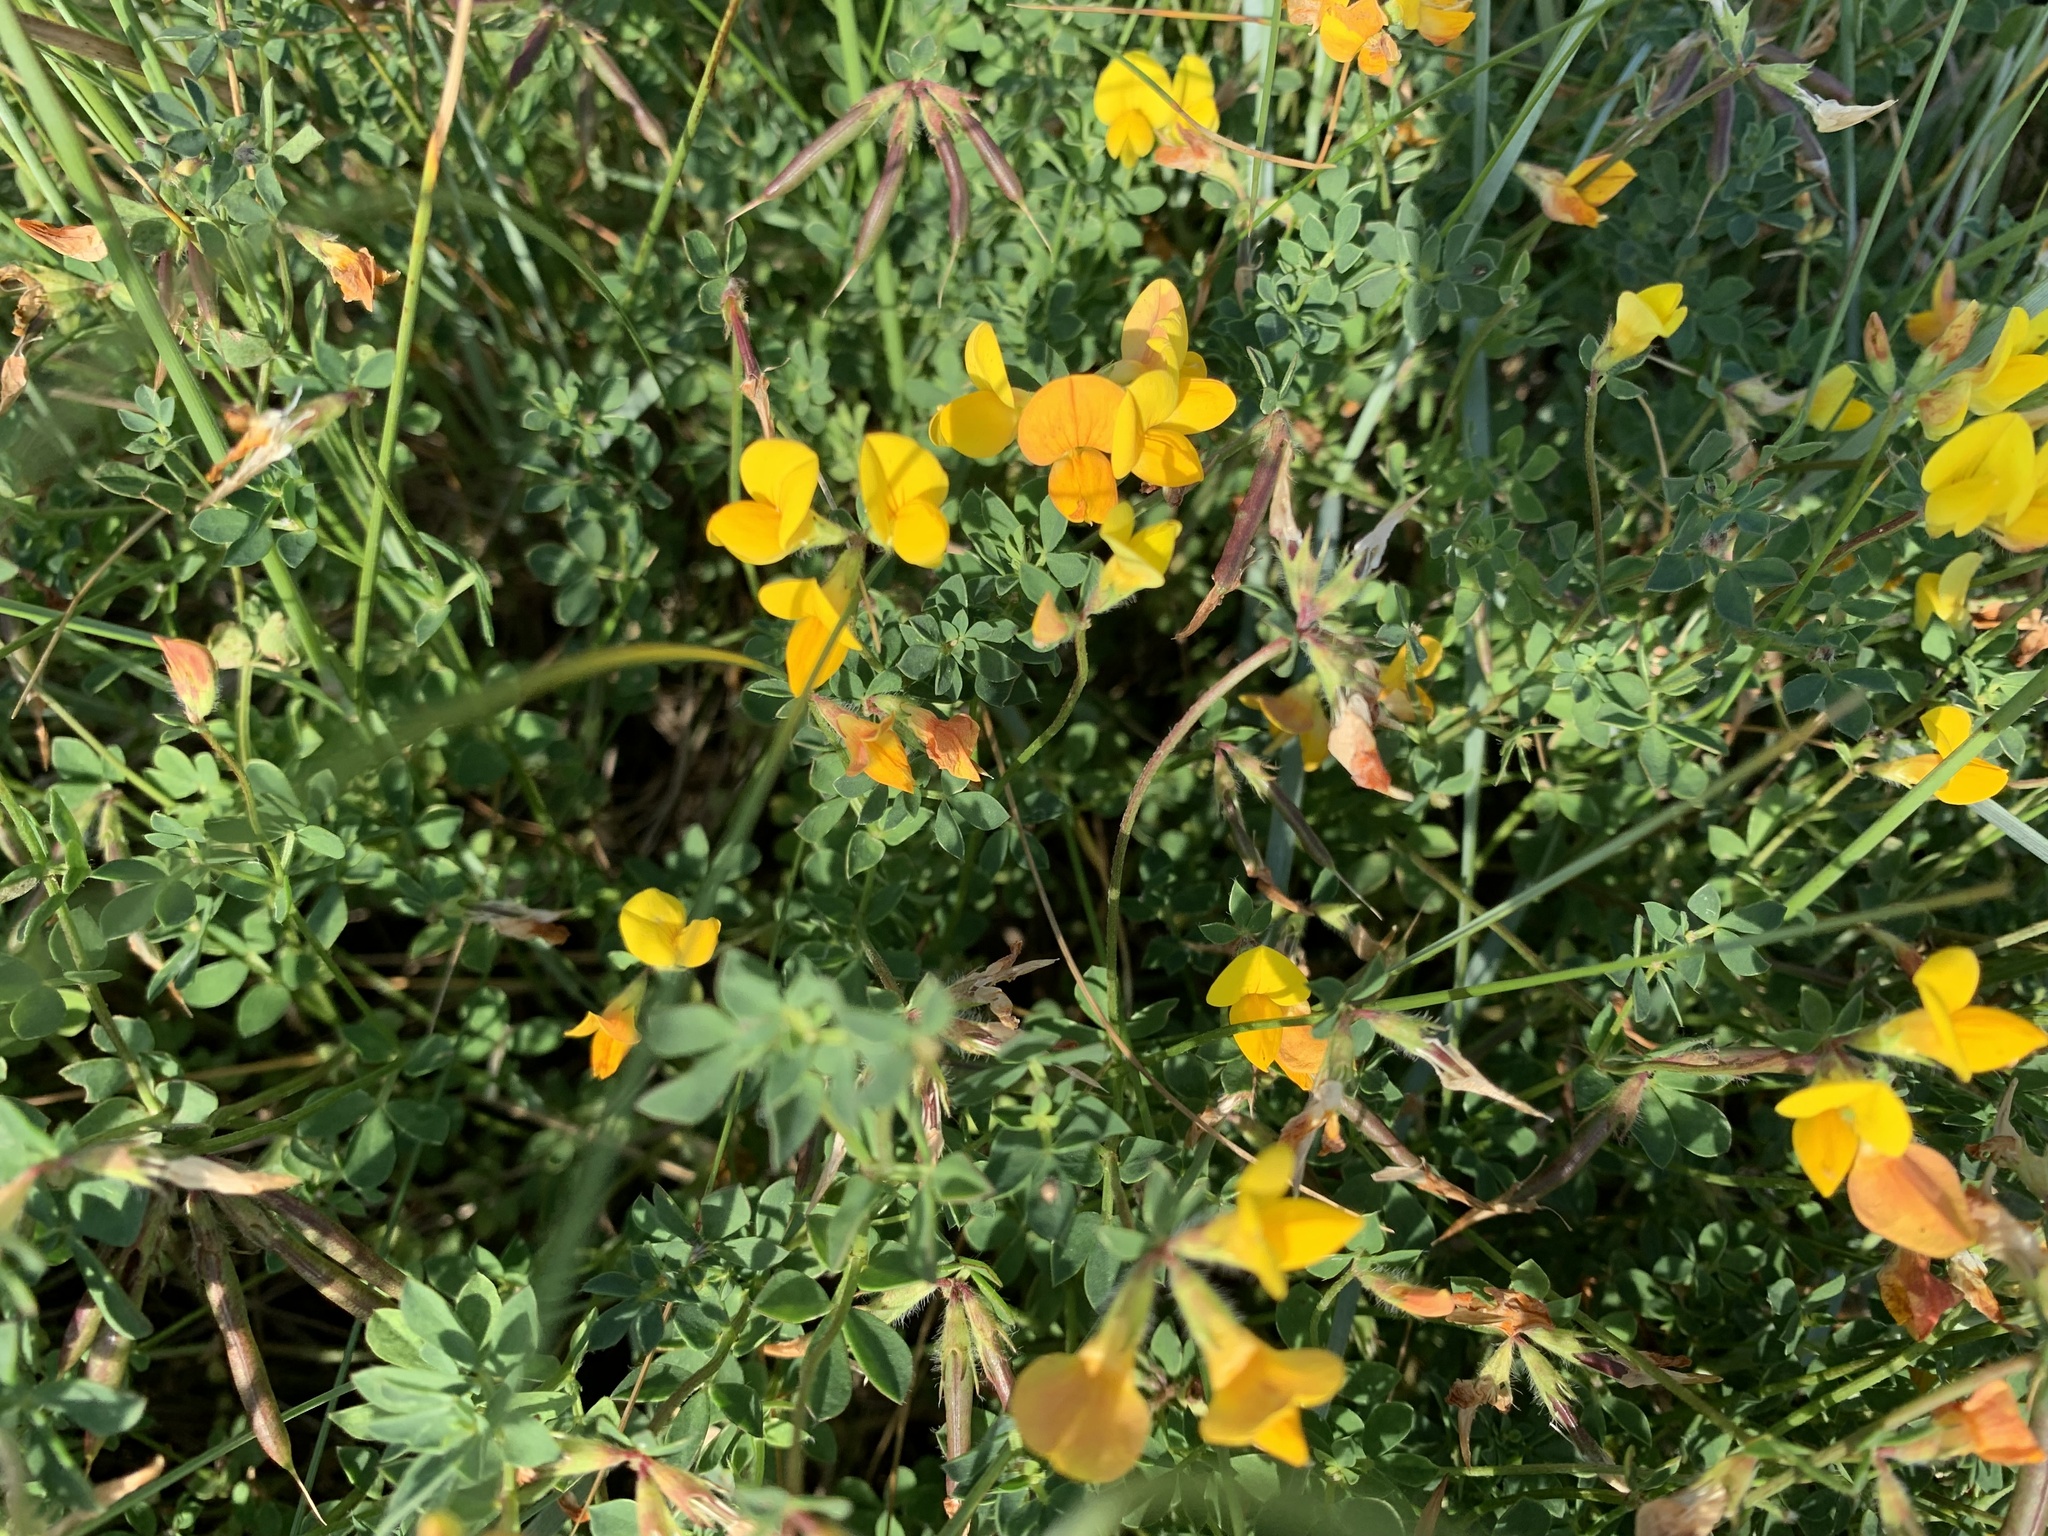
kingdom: Plantae
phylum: Tracheophyta
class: Magnoliopsida
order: Fabales
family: Fabaceae
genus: Lotus
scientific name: Lotus corniculatus
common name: Common bird's-foot-trefoil
